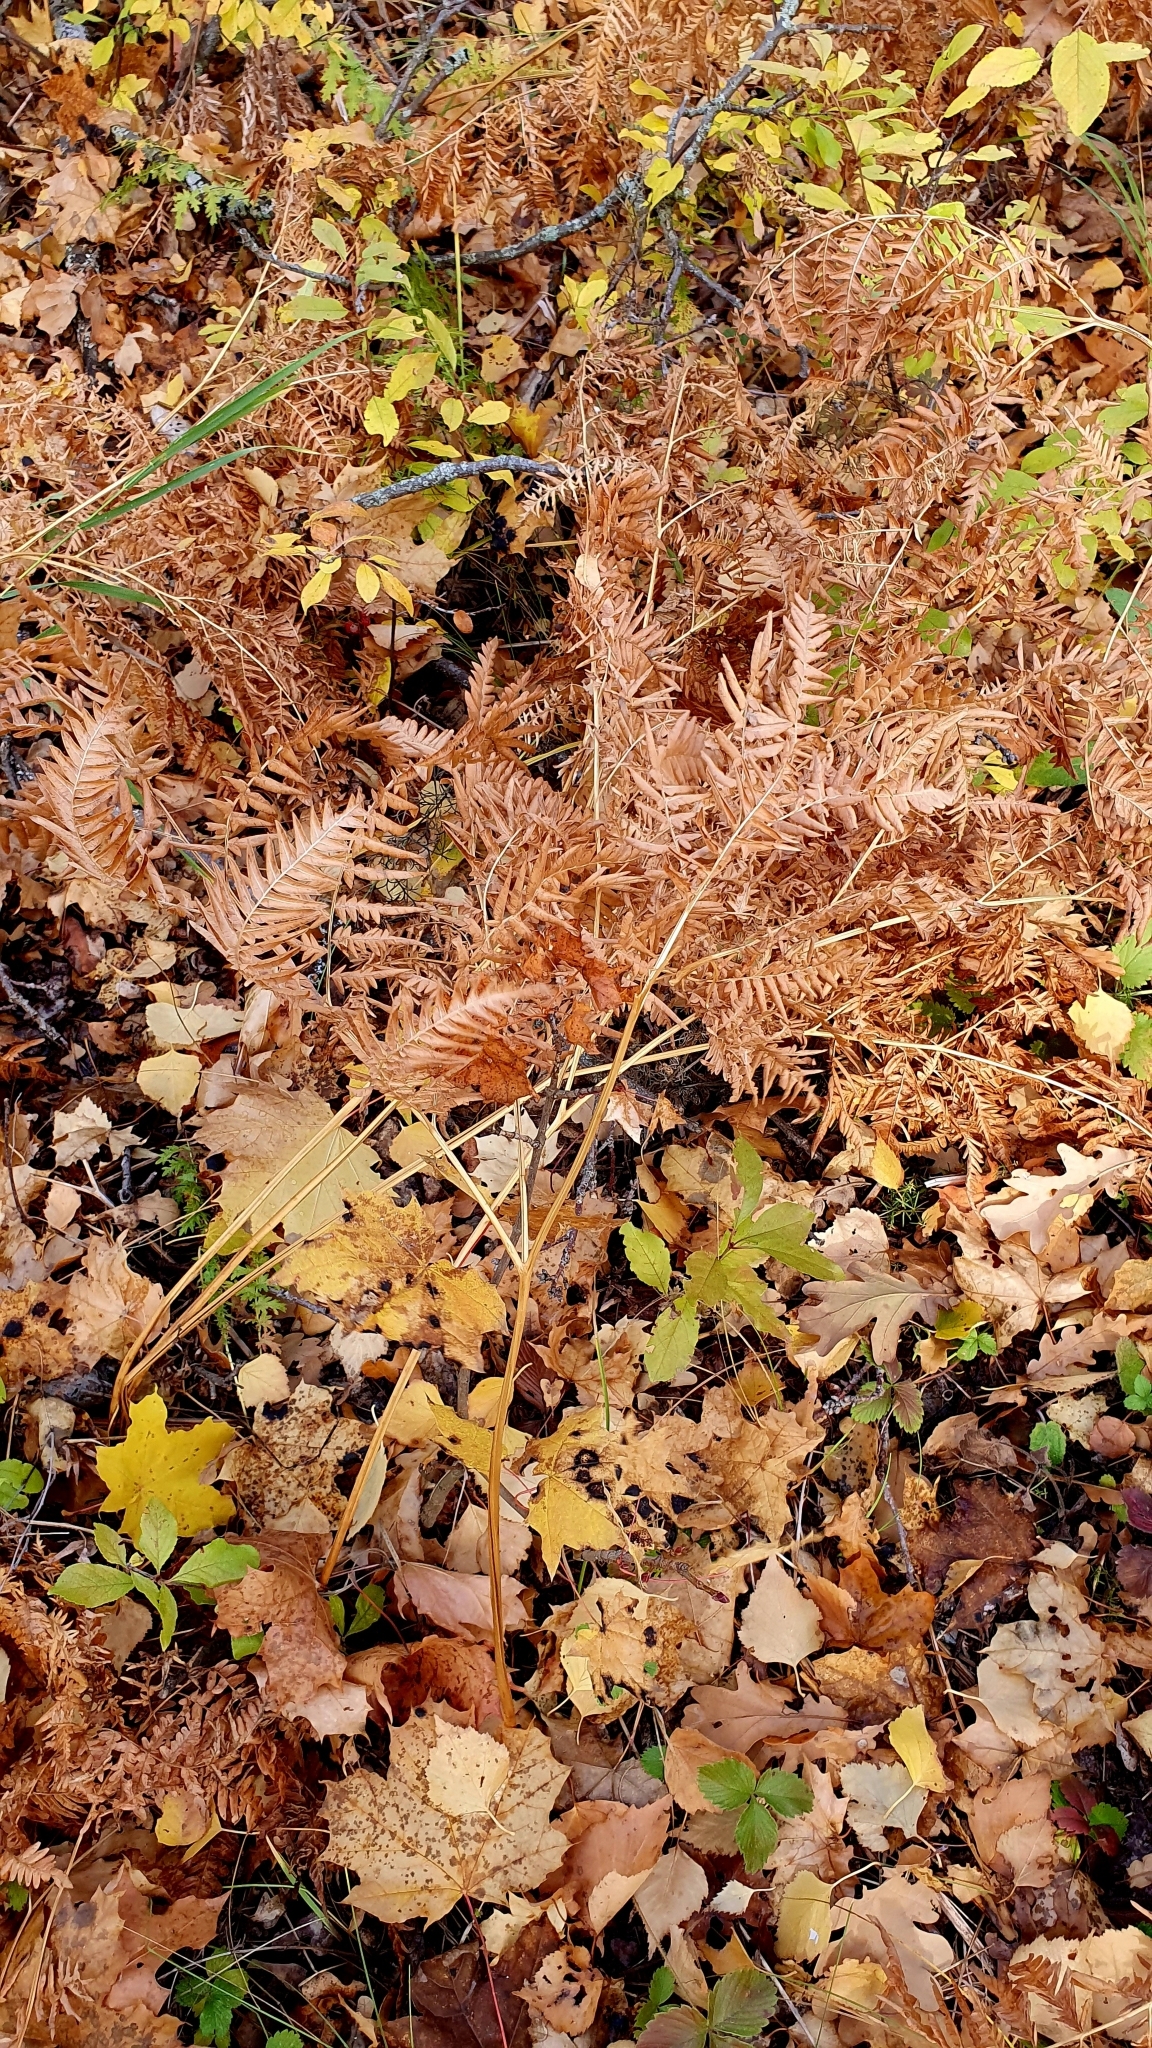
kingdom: Plantae
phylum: Tracheophyta
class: Polypodiopsida
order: Polypodiales
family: Dennstaedtiaceae
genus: Pteridium
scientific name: Pteridium aquilinum
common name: Bracken
